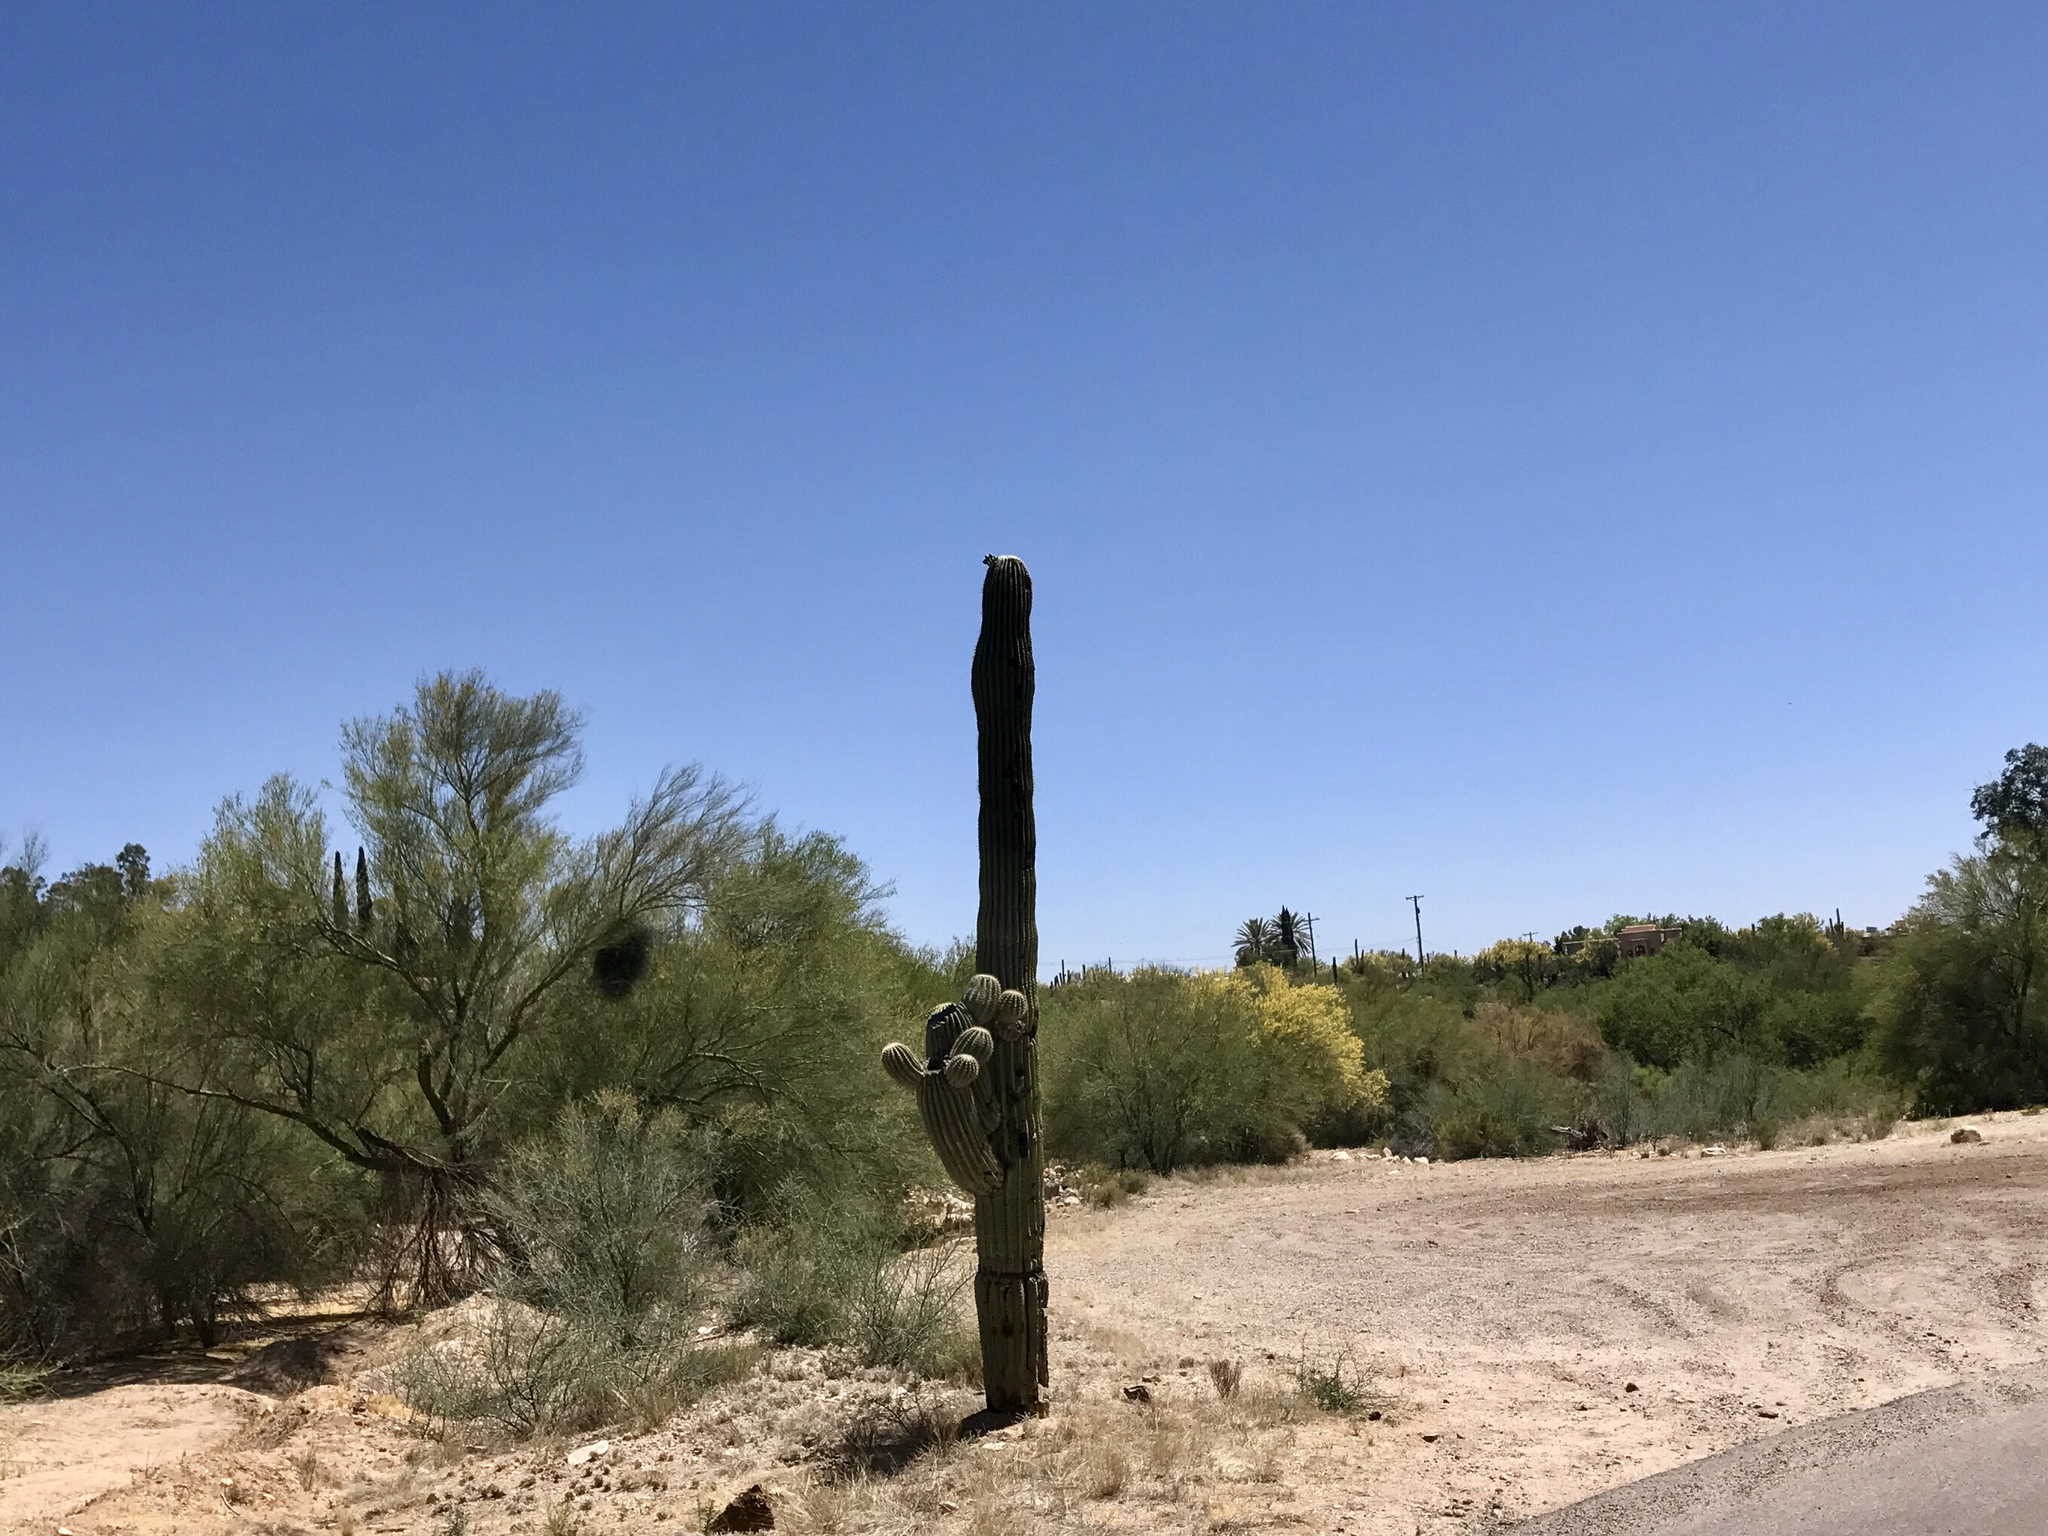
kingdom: Plantae
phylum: Tracheophyta
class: Magnoliopsida
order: Caryophyllales
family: Cactaceae
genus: Carnegiea
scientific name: Carnegiea gigantea
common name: Saguaro
